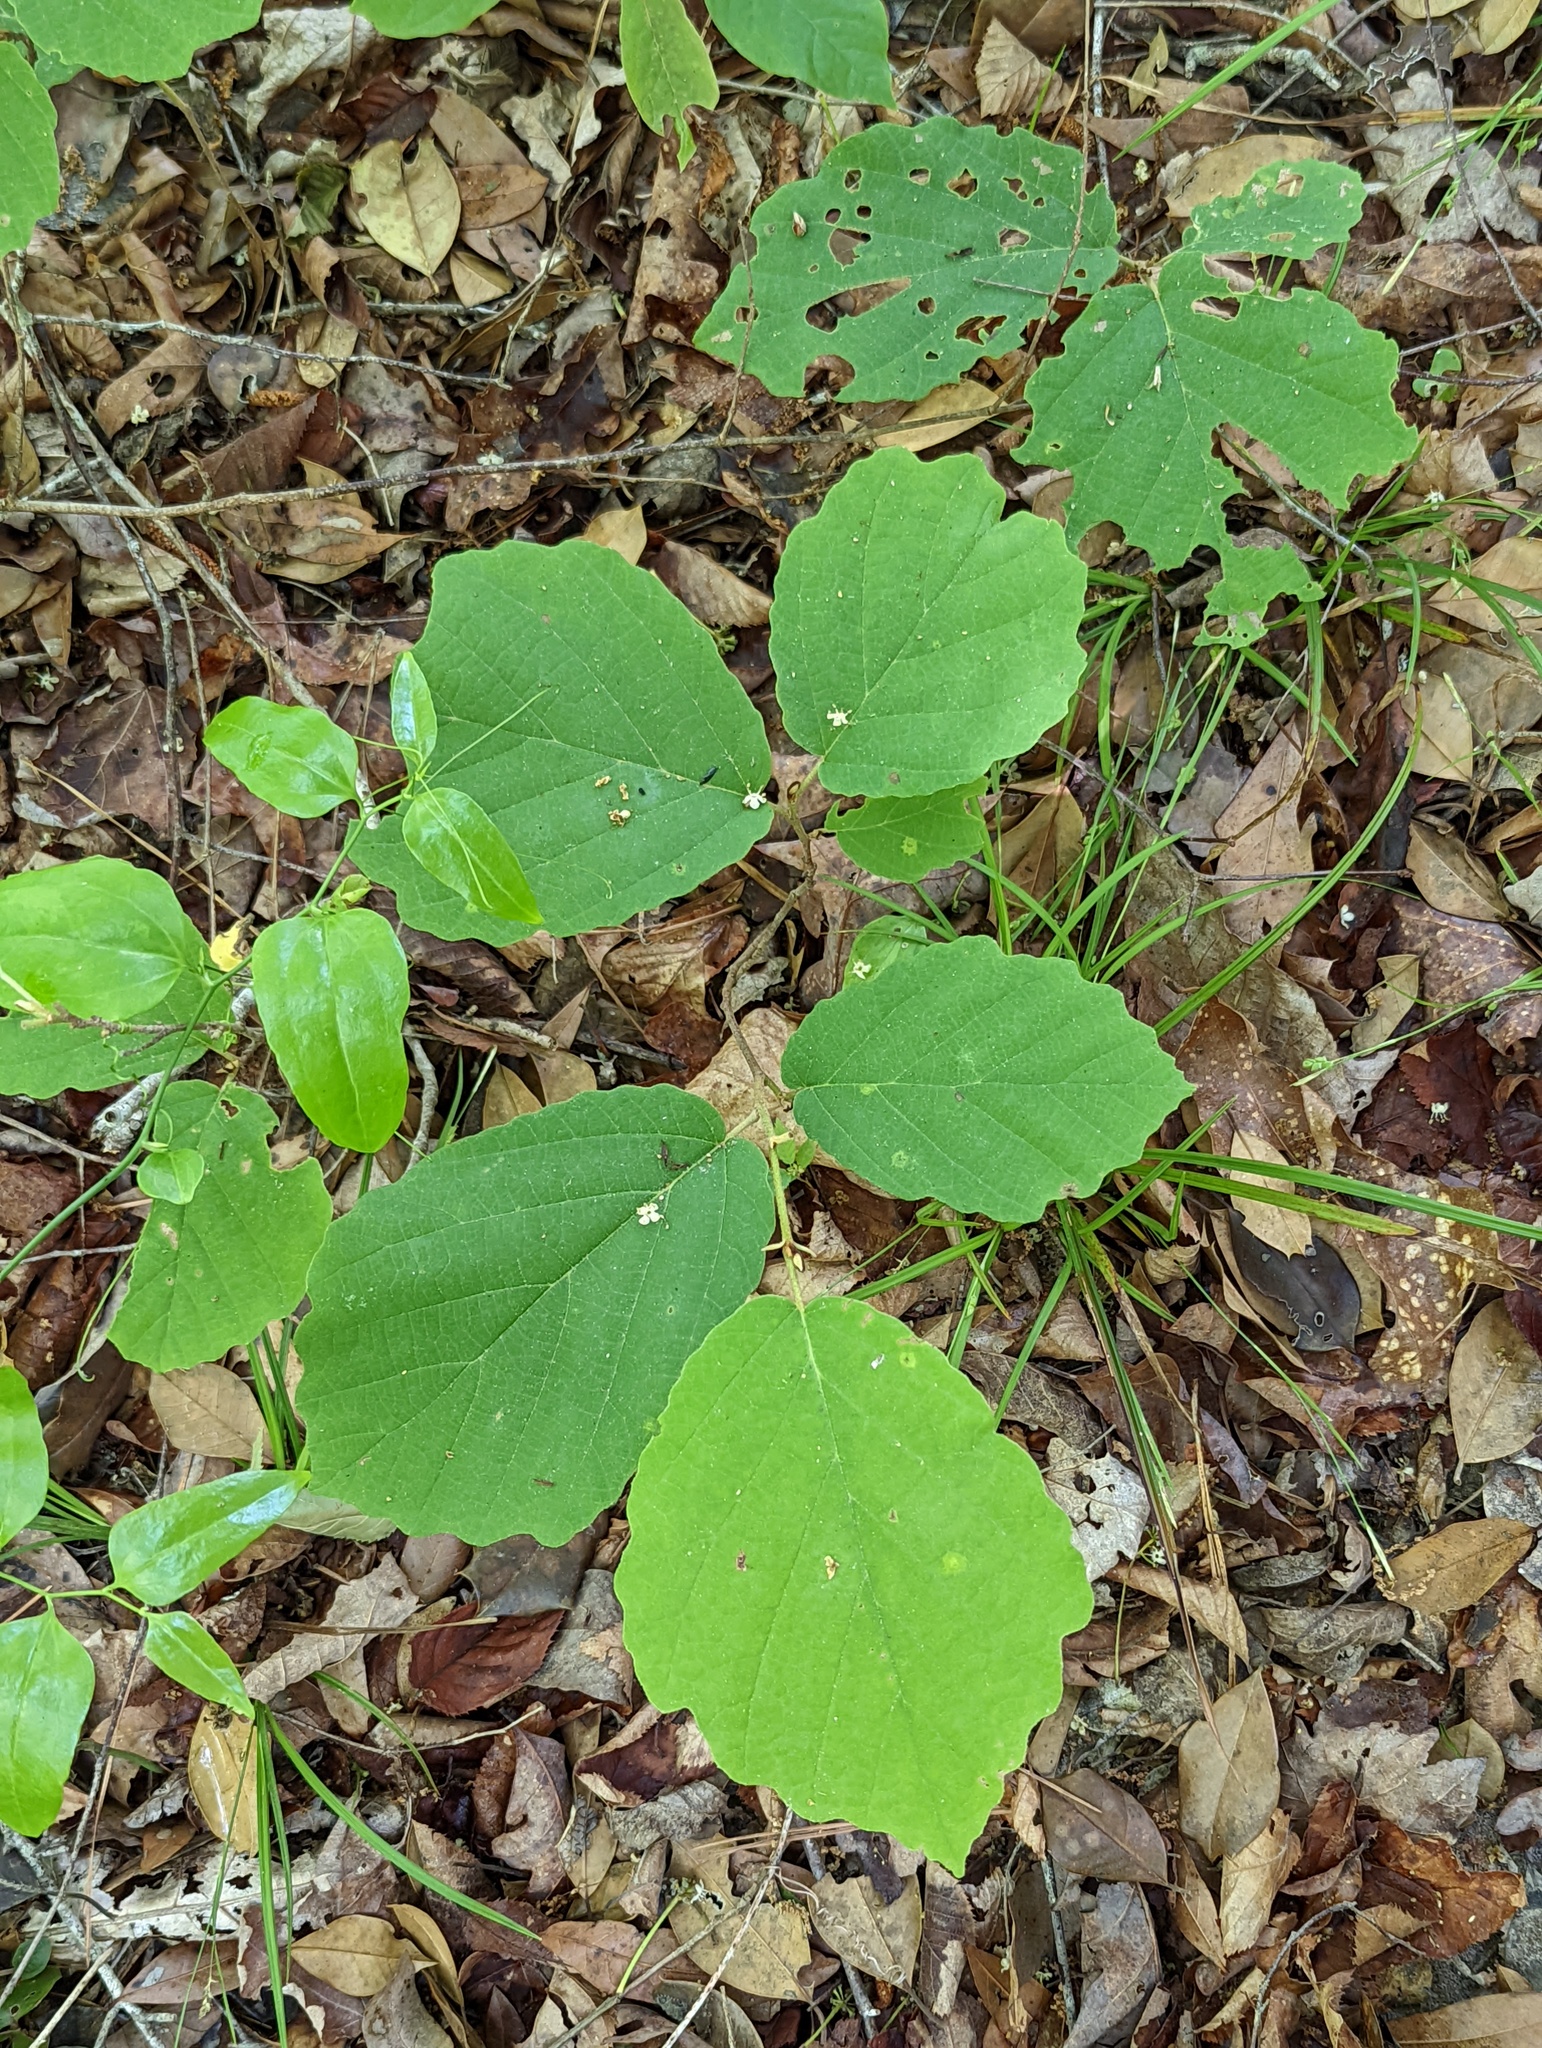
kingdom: Plantae
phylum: Tracheophyta
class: Magnoliopsida
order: Saxifragales
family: Hamamelidaceae
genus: Hamamelis
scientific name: Hamamelis ovalis
